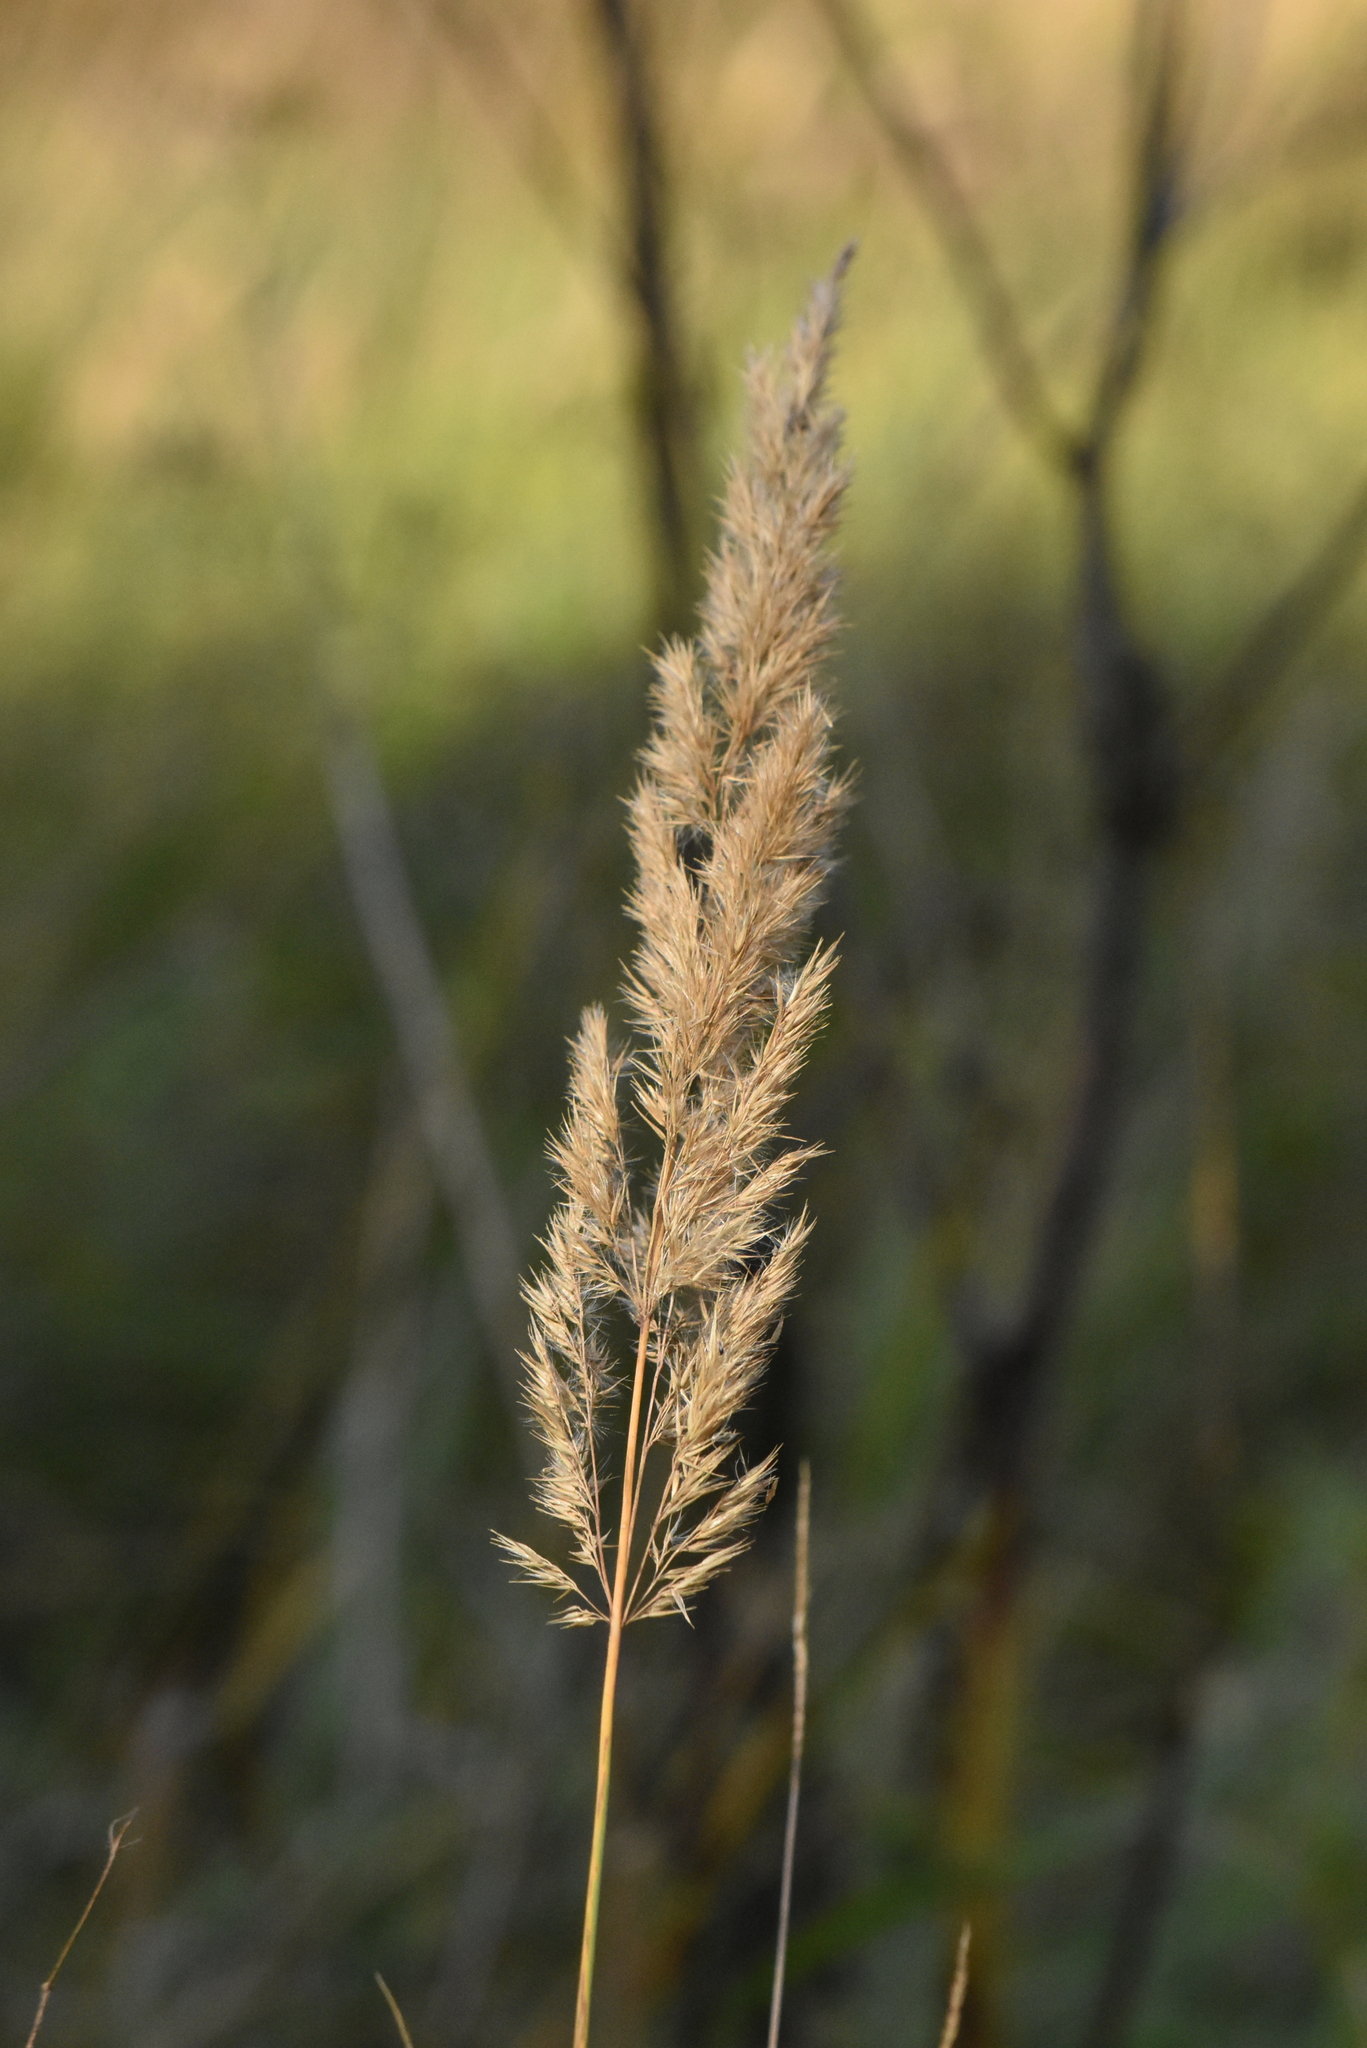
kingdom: Plantae
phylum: Tracheophyta
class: Liliopsida
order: Poales
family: Poaceae
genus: Calamagrostis
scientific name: Calamagrostis epigejos
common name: Wood small-reed
